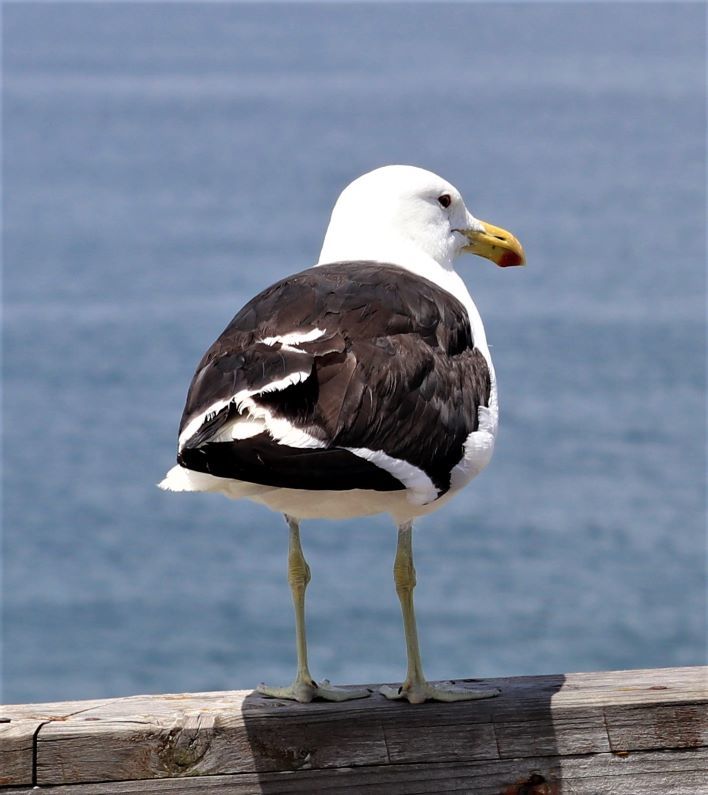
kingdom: Animalia
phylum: Chordata
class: Aves
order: Charadriiformes
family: Laridae
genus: Larus
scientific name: Larus dominicanus
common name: Kelp gull
